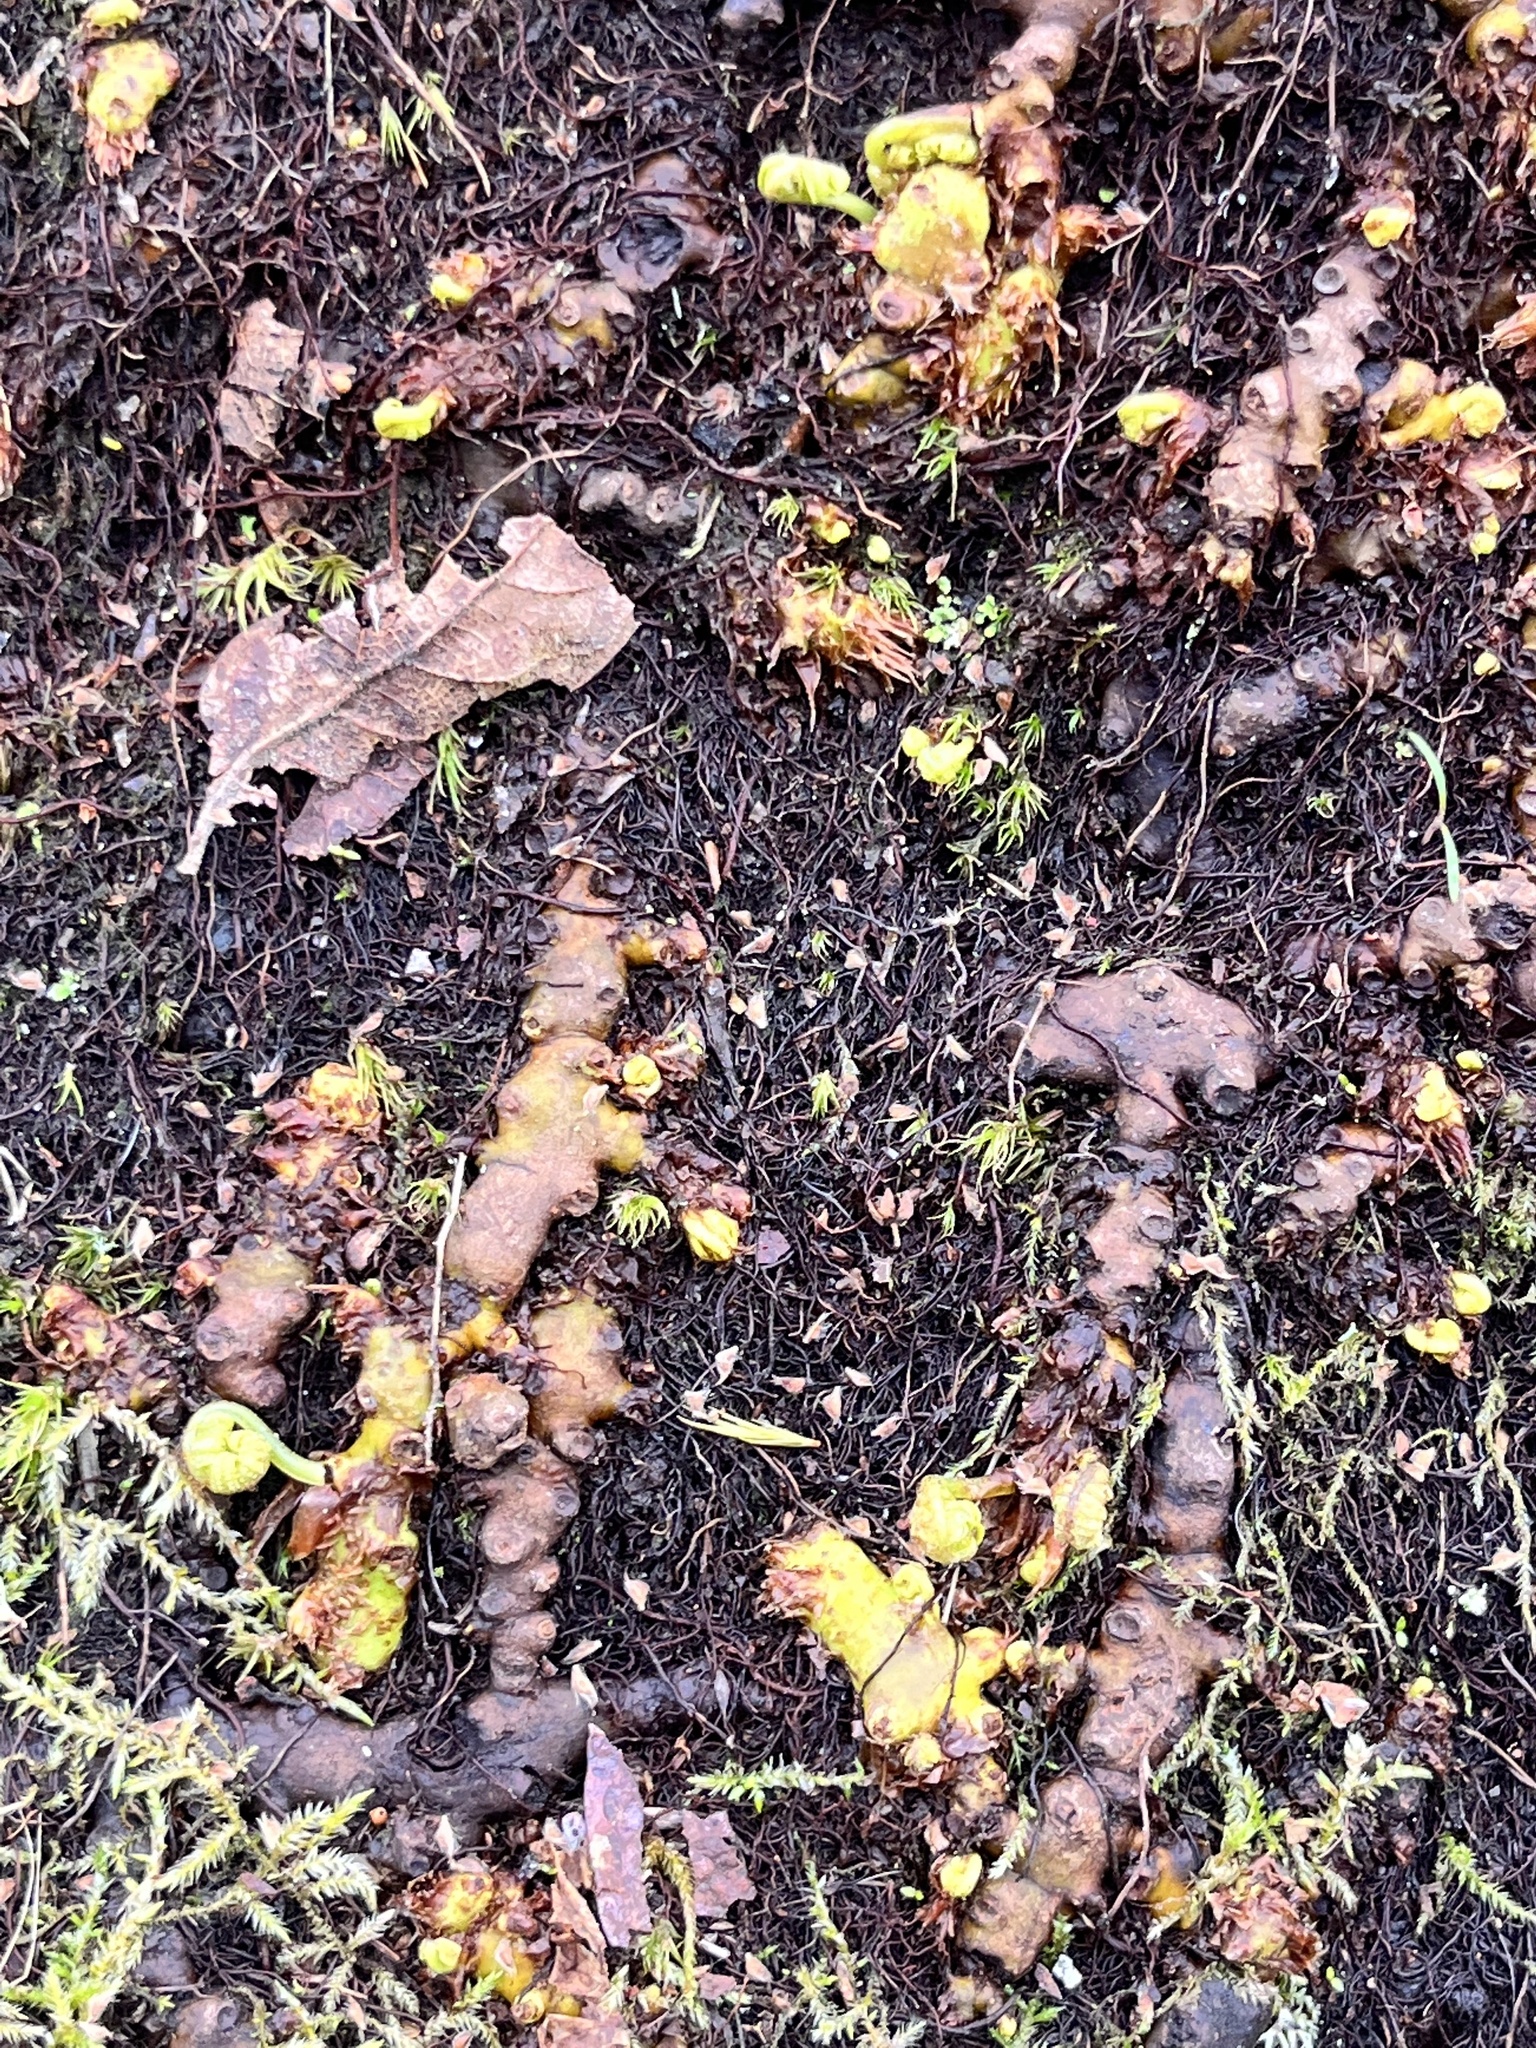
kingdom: Plantae
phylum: Tracheophyta
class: Polypodiopsida
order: Polypodiales
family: Polypodiaceae
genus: Polypodium
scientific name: Polypodium glycyrrhiza
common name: Licorice fern
